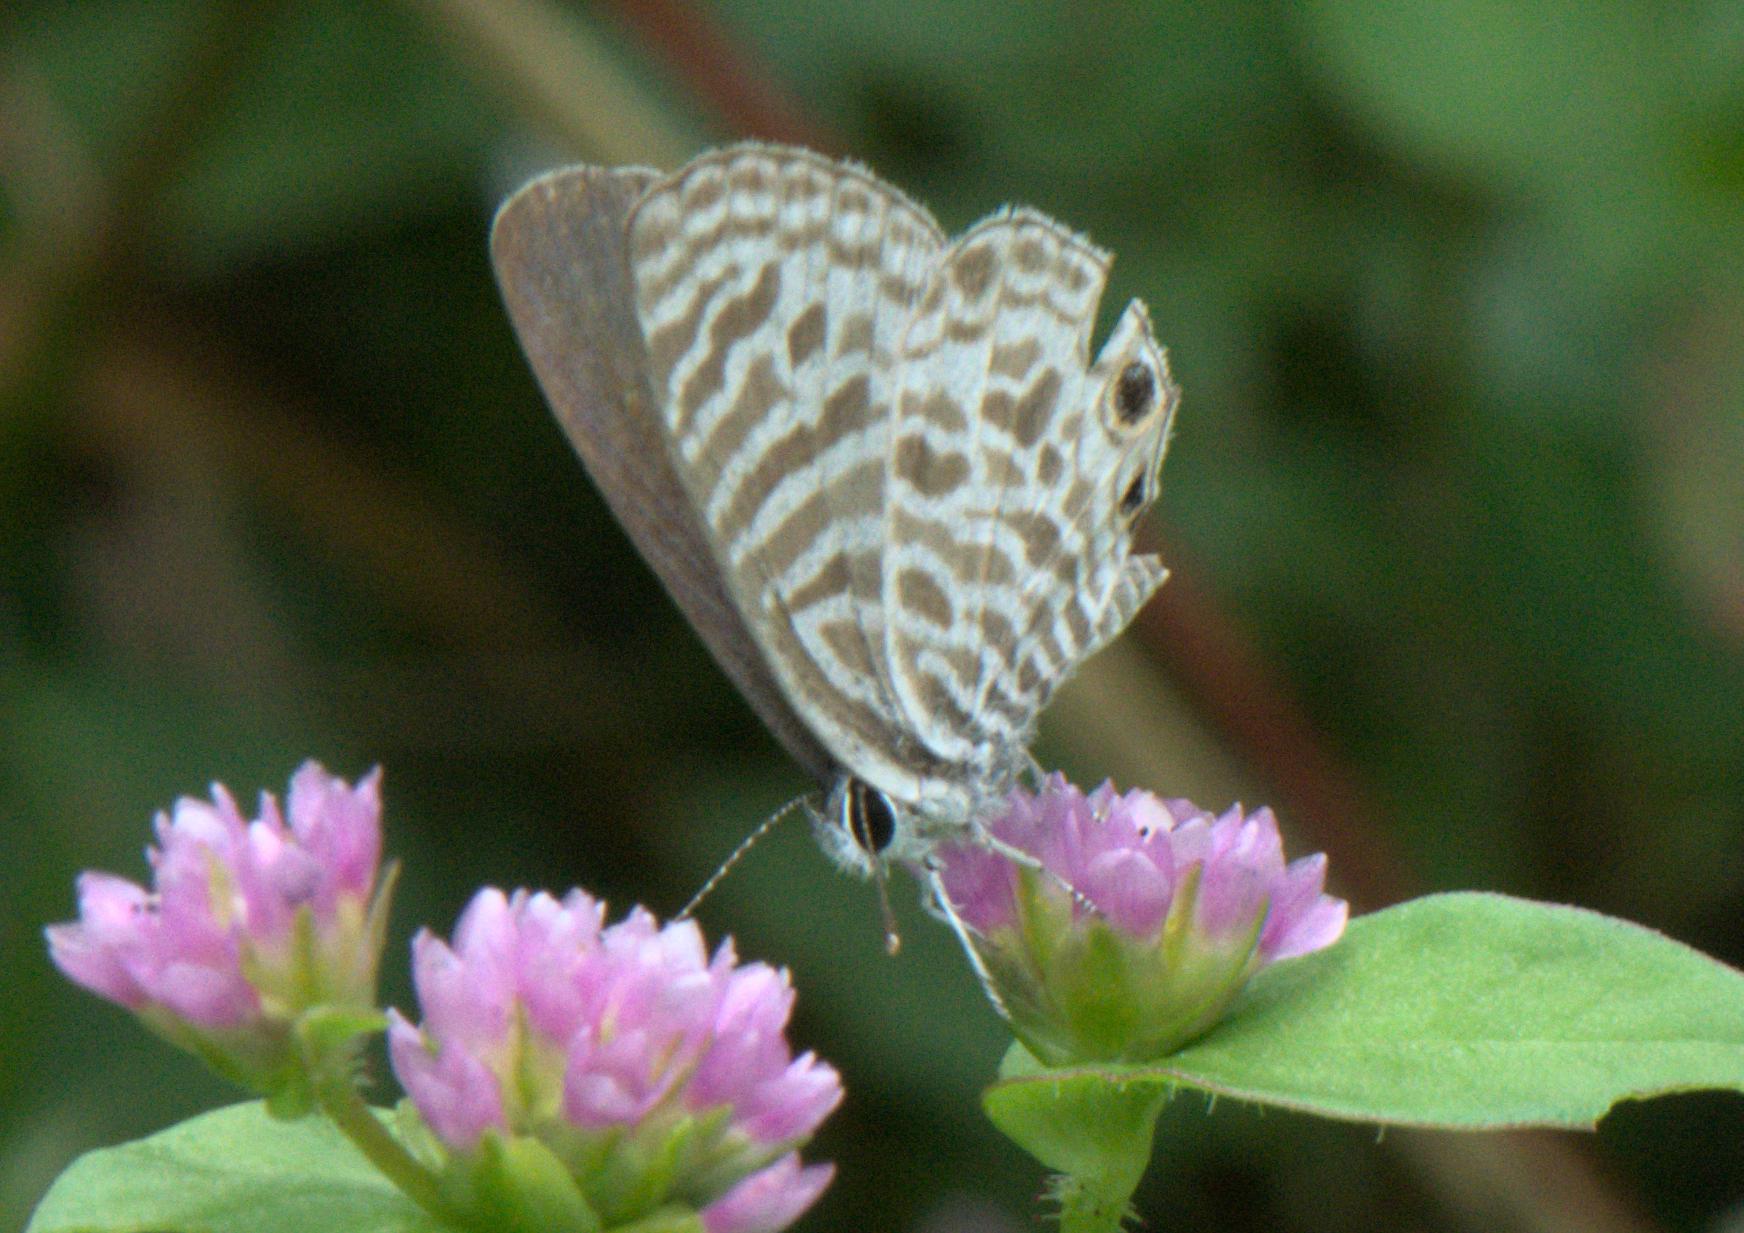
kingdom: Animalia
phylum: Arthropoda
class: Insecta
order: Lepidoptera
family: Lycaenidae
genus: Leptotes
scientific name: Leptotes plinius
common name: Zebra blue
